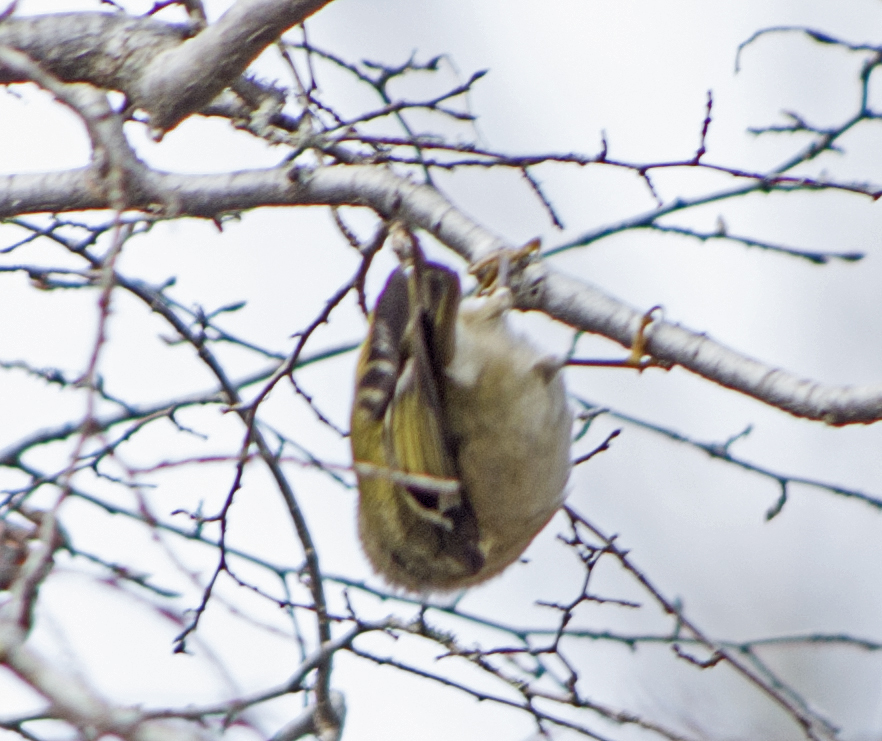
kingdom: Animalia
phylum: Chordata
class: Aves
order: Passeriformes
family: Regulidae
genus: Regulus
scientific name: Regulus regulus
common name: Goldcrest
